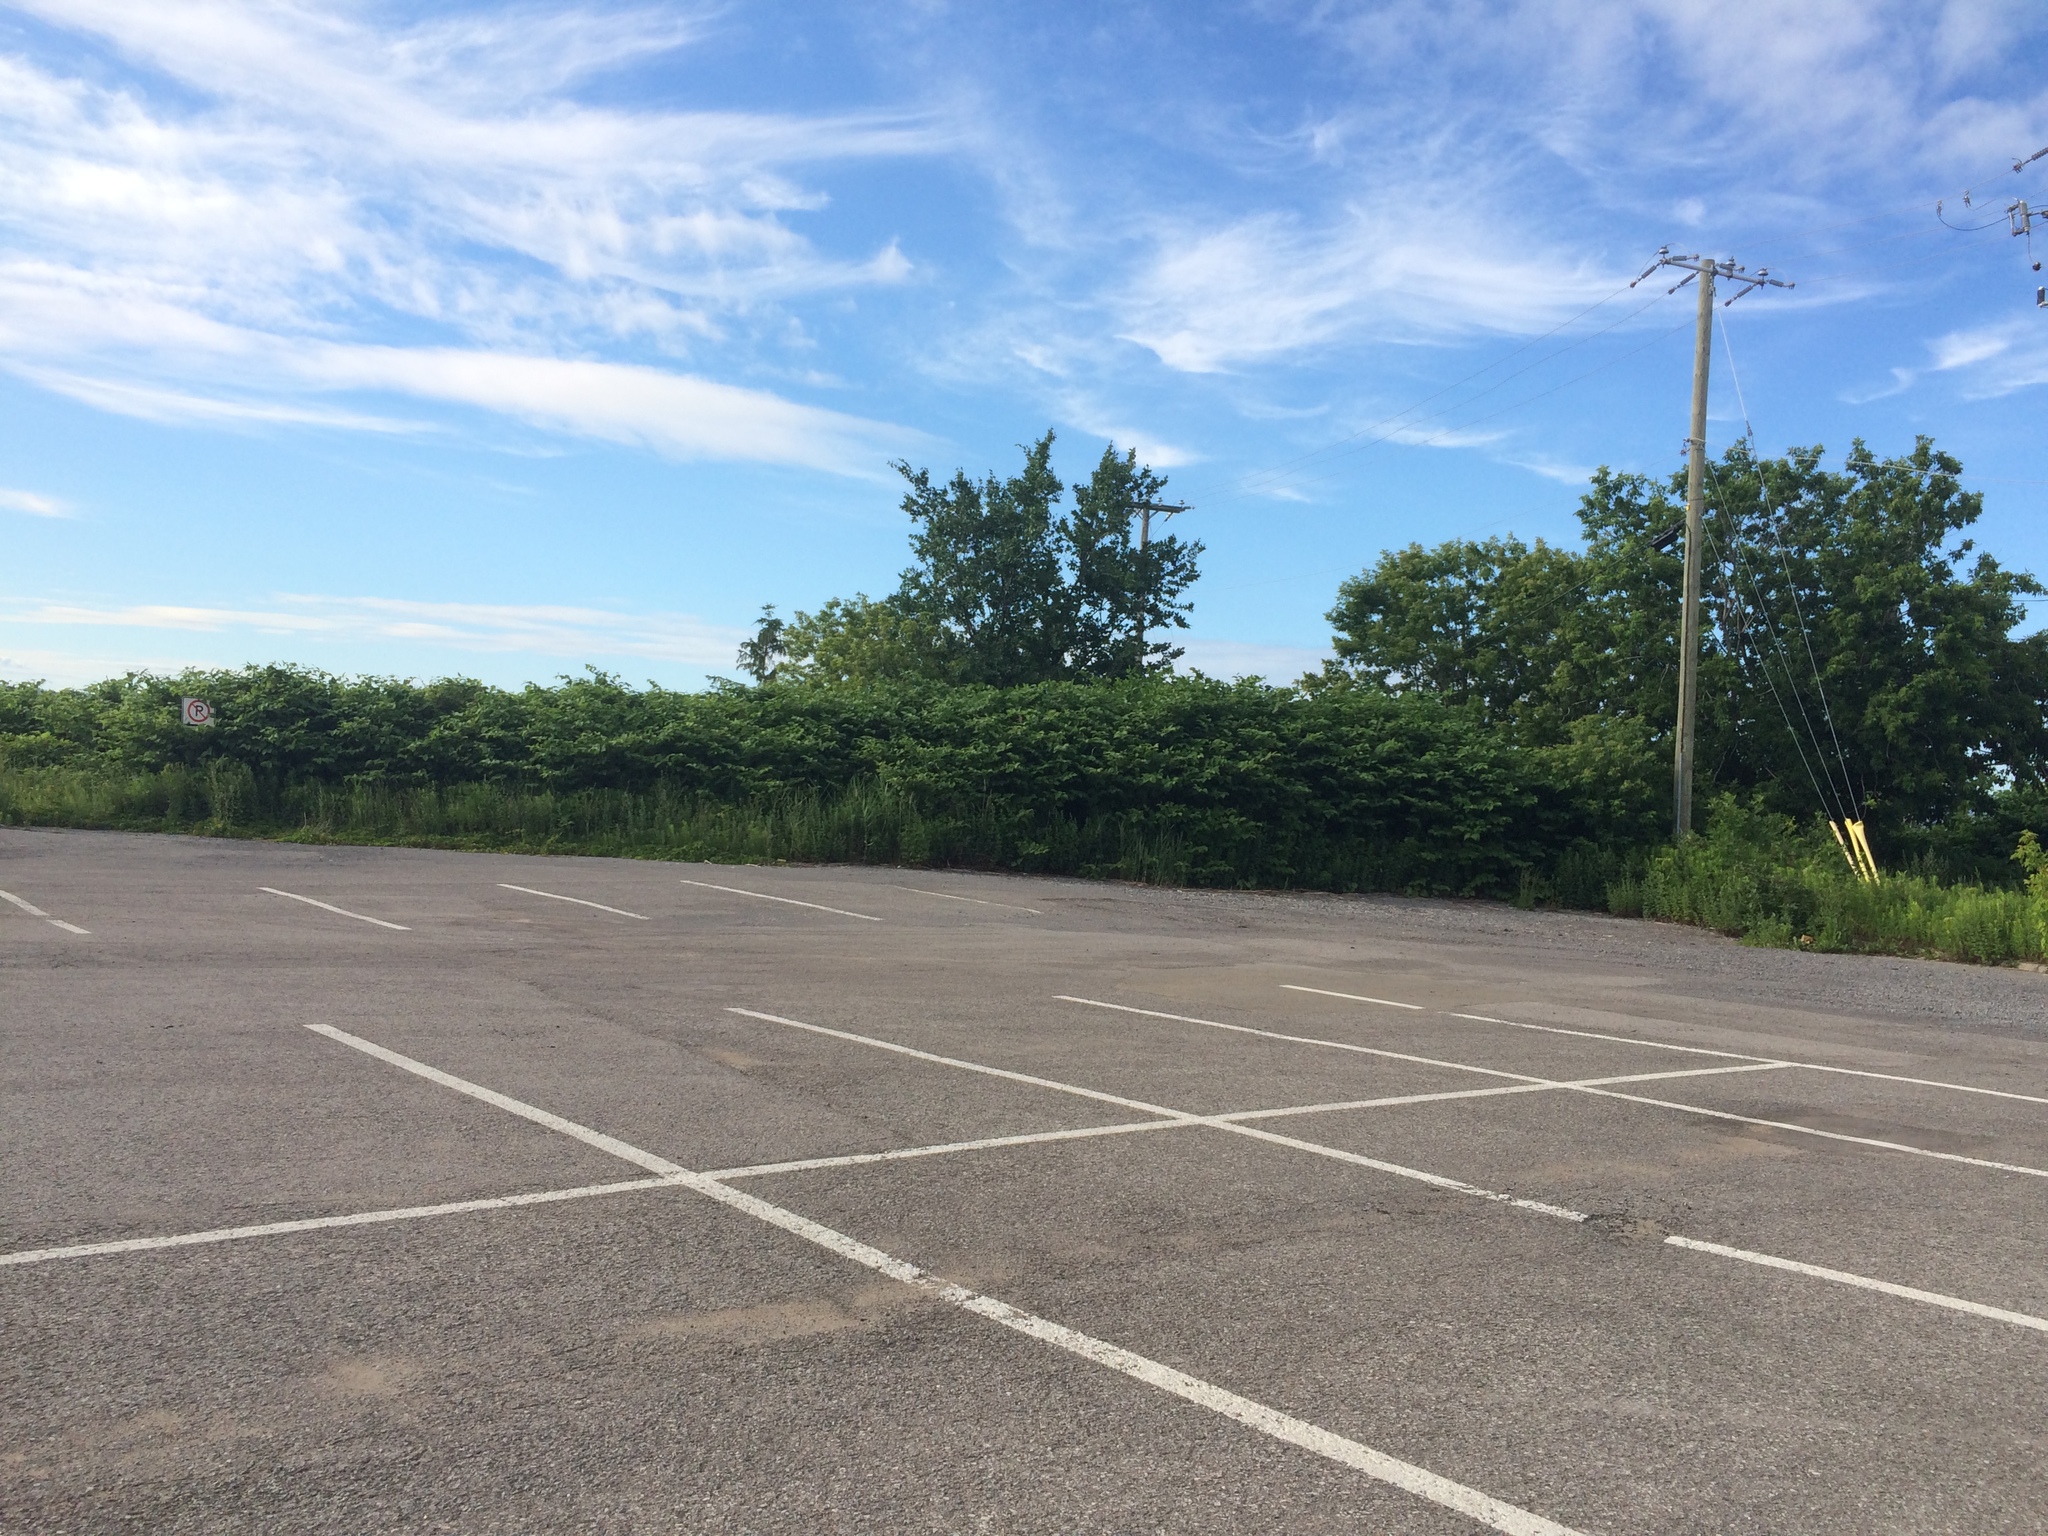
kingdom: Plantae
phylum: Tracheophyta
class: Magnoliopsida
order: Caryophyllales
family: Polygonaceae
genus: Reynoutria
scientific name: Reynoutria japonica
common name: Japanese knotweed
